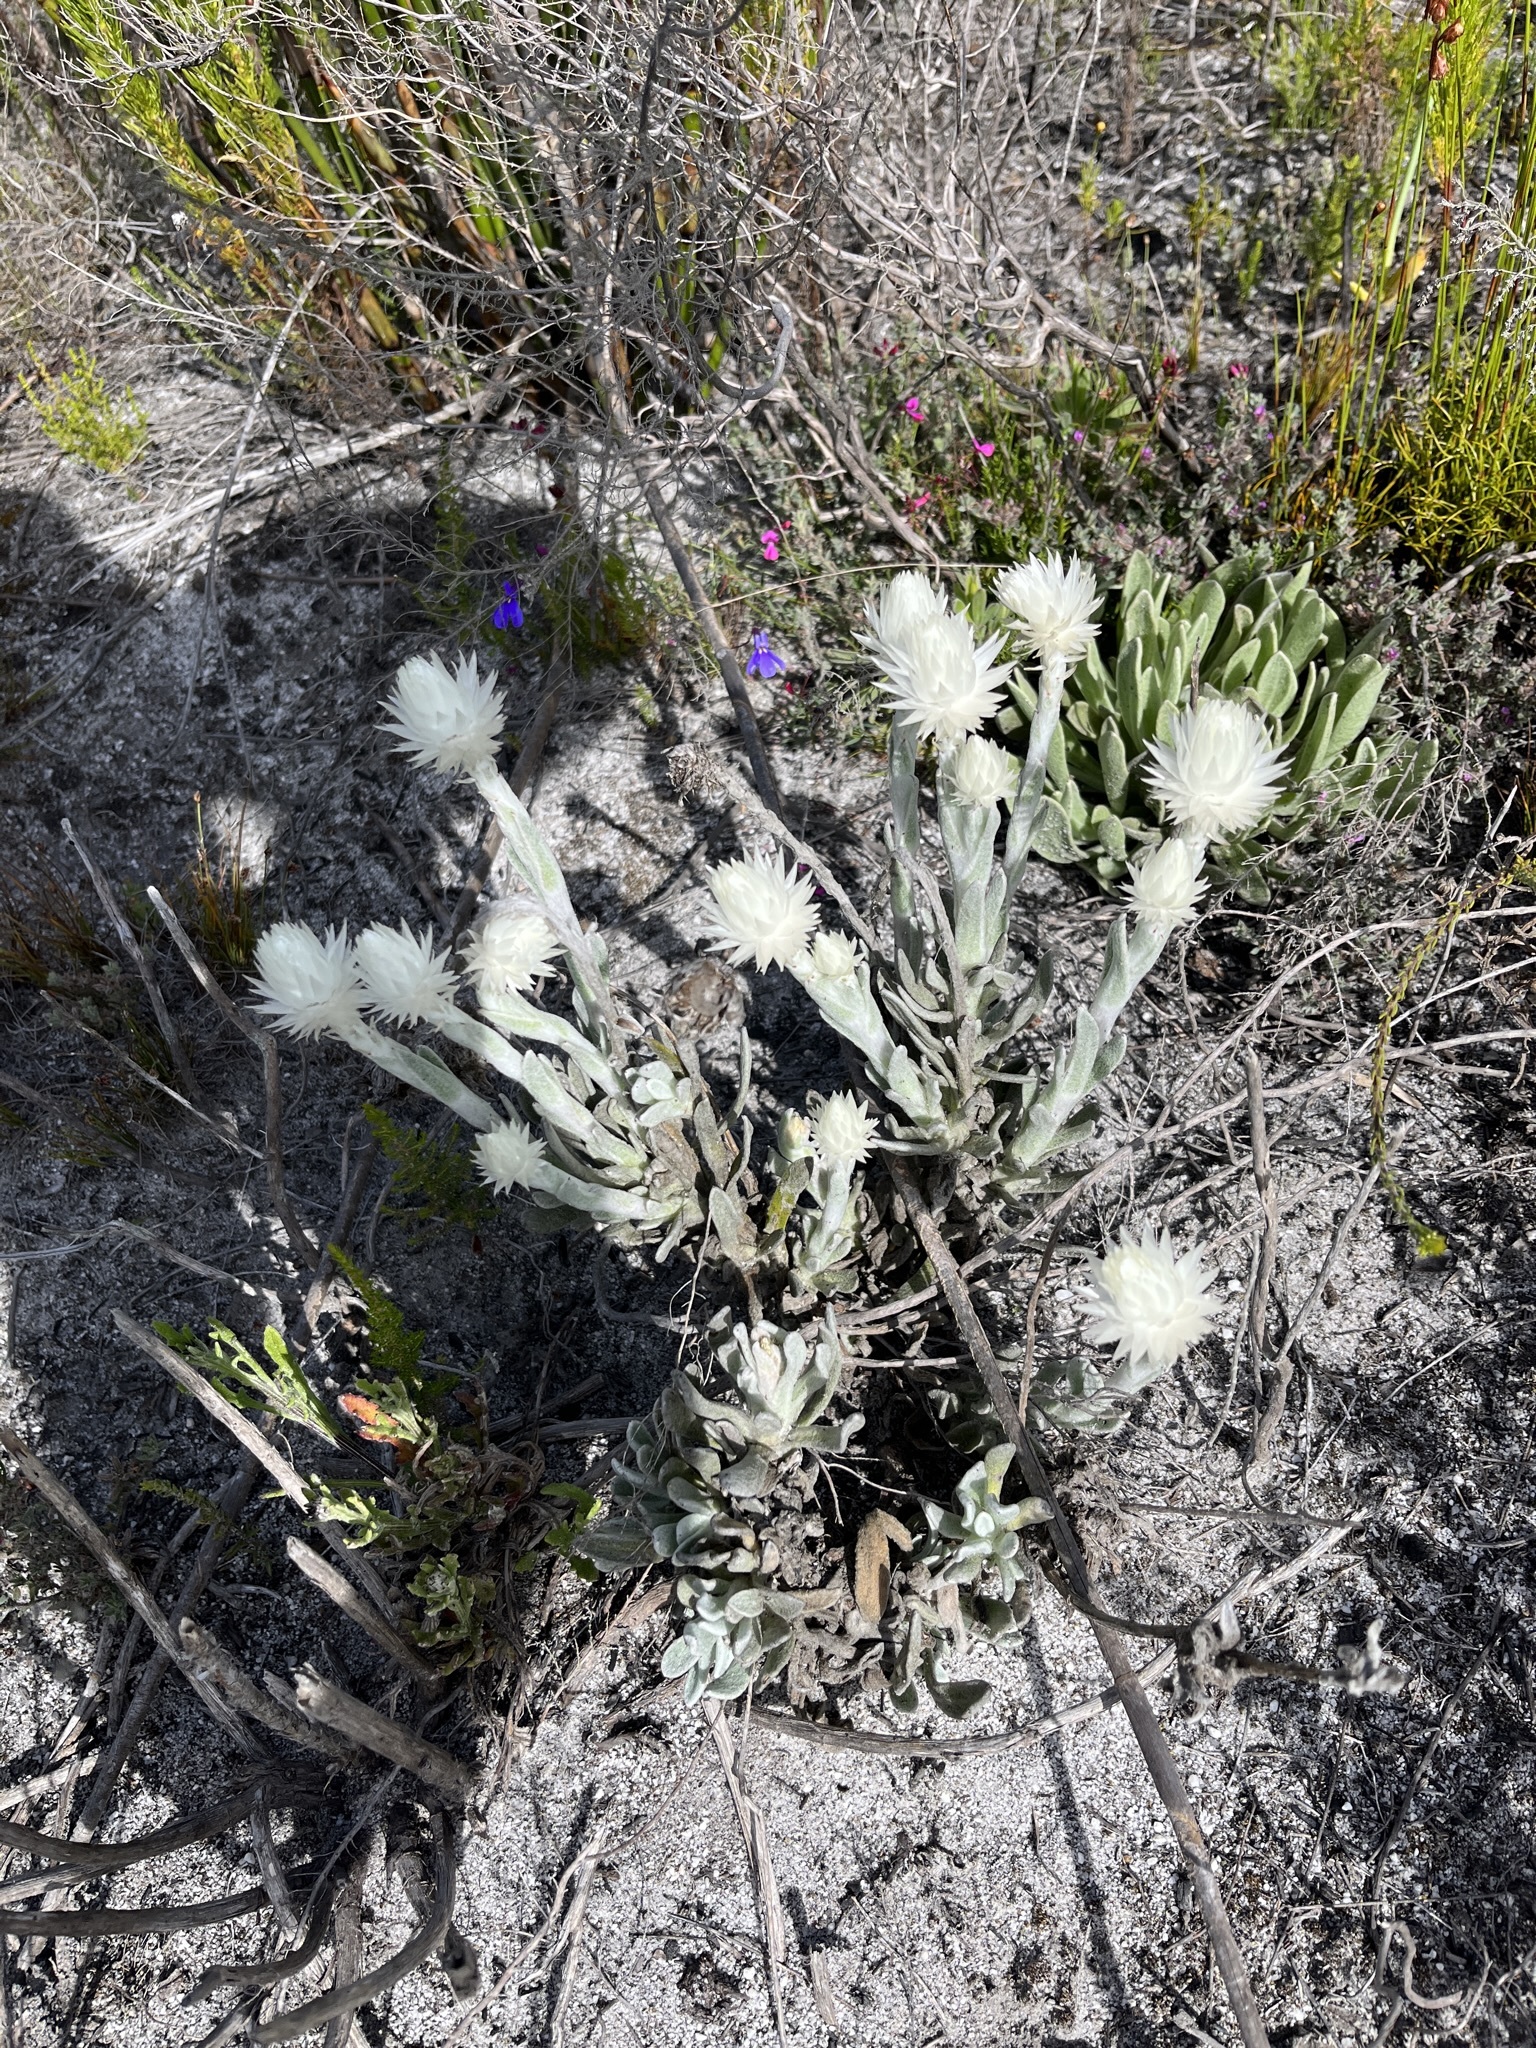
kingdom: Plantae
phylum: Tracheophyta
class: Magnoliopsida
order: Asterales
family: Asteraceae
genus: Syncarpha
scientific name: Syncarpha vestita
